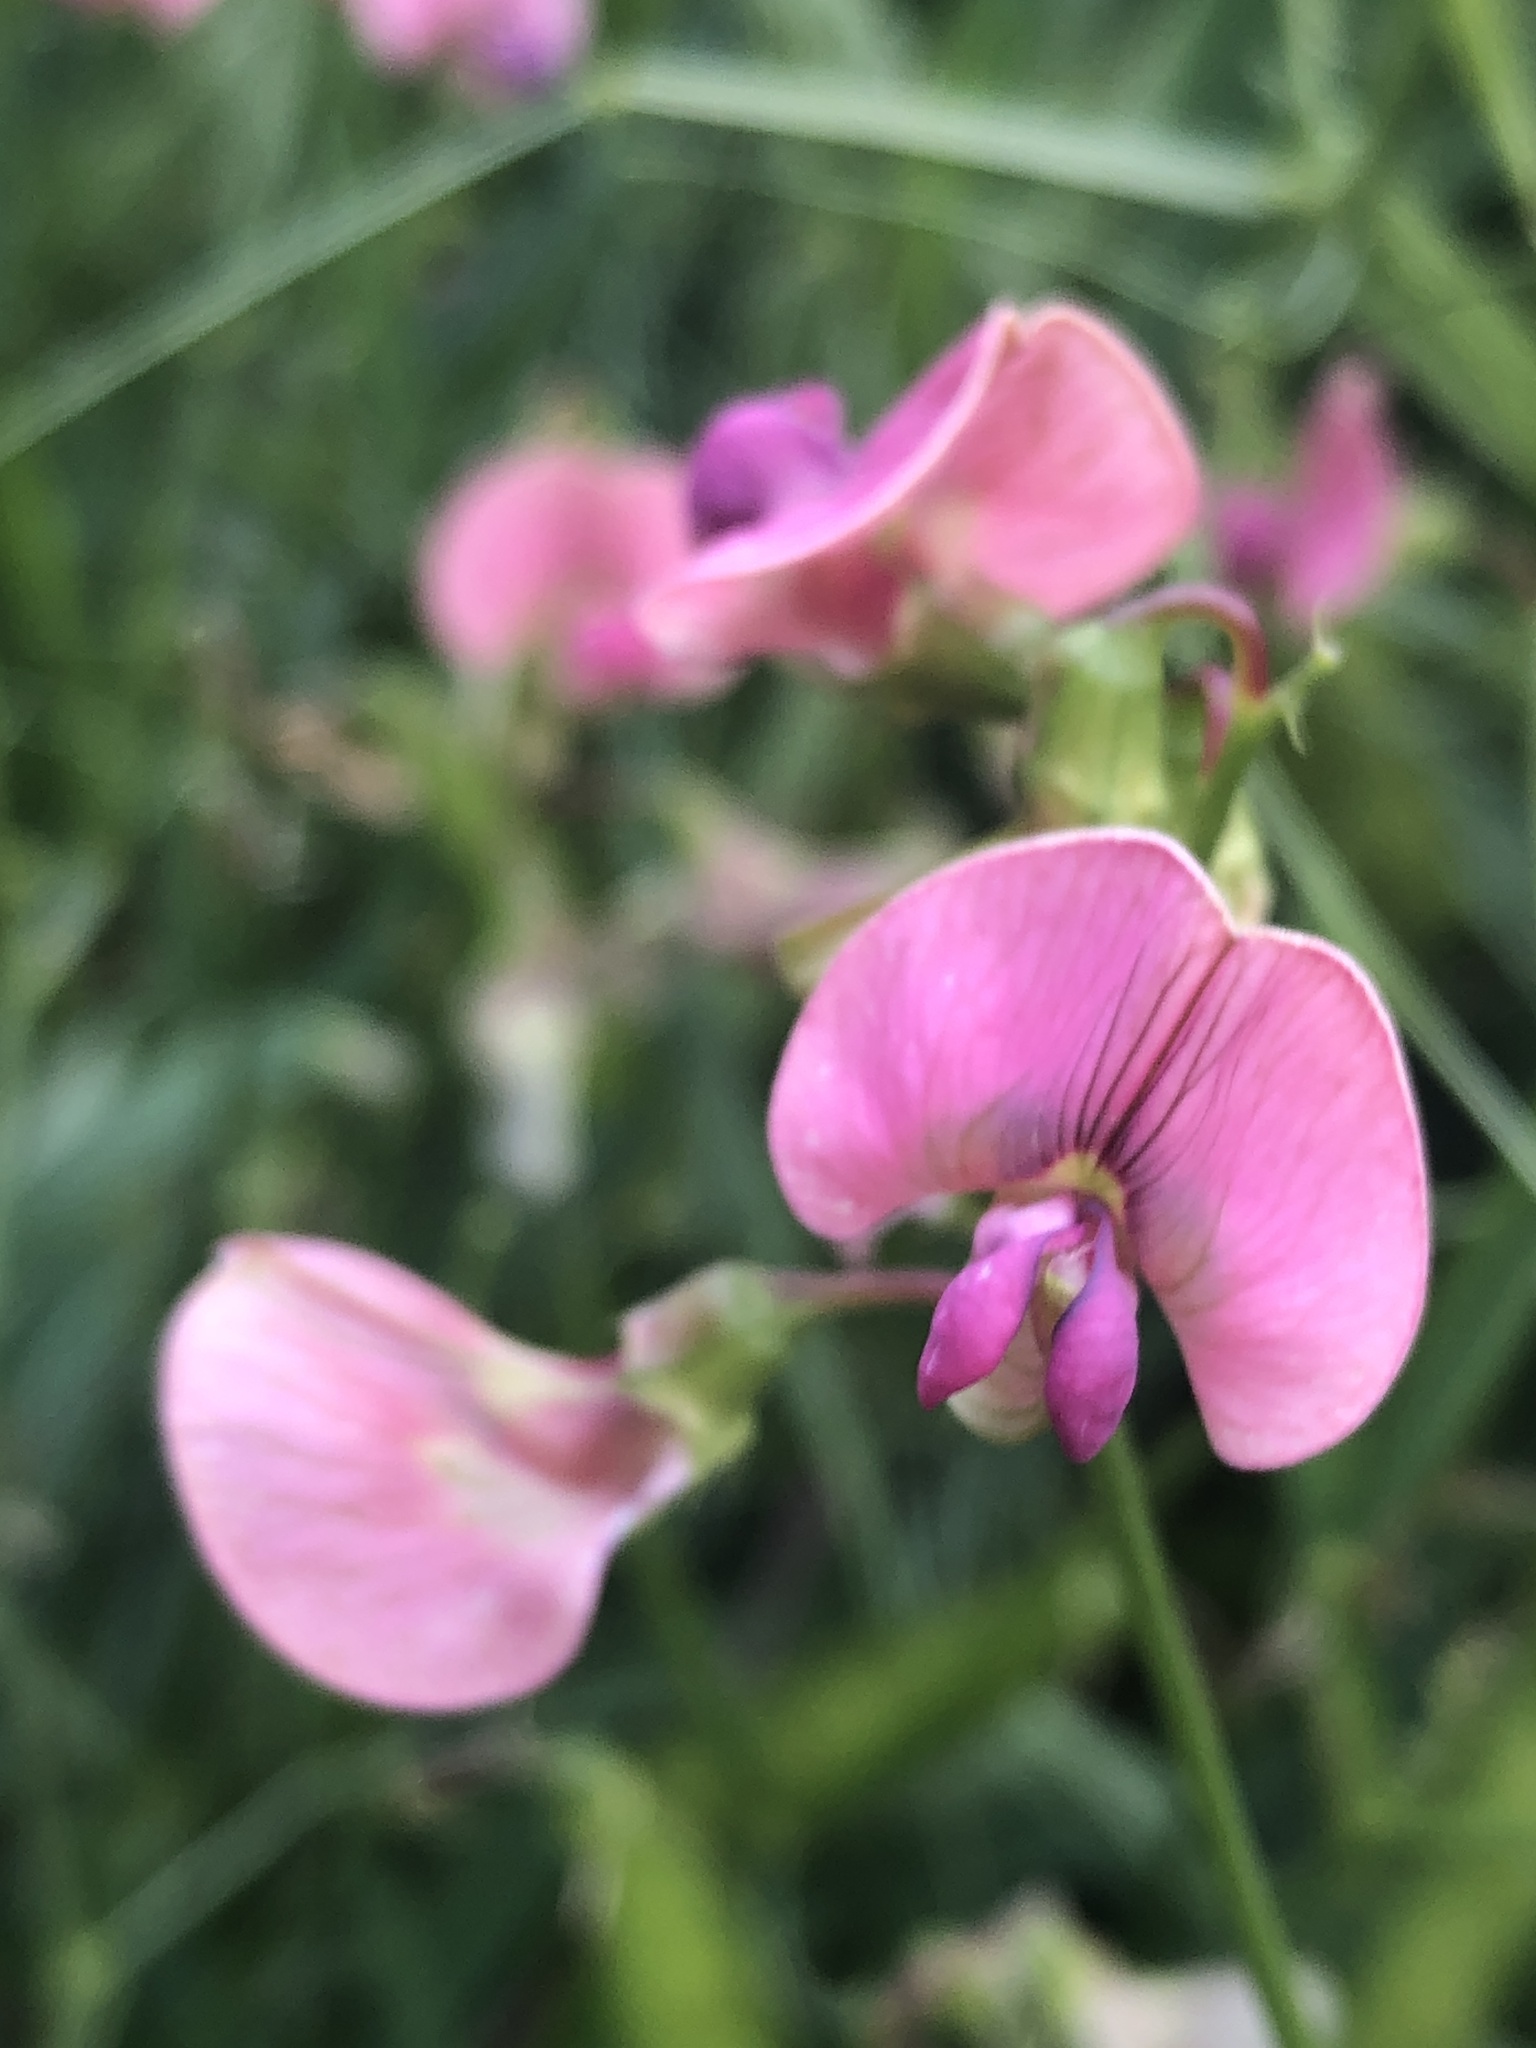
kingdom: Plantae
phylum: Tracheophyta
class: Magnoliopsida
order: Fabales
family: Fabaceae
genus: Lathyrus
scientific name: Lathyrus sylvestris
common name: Flat pea
